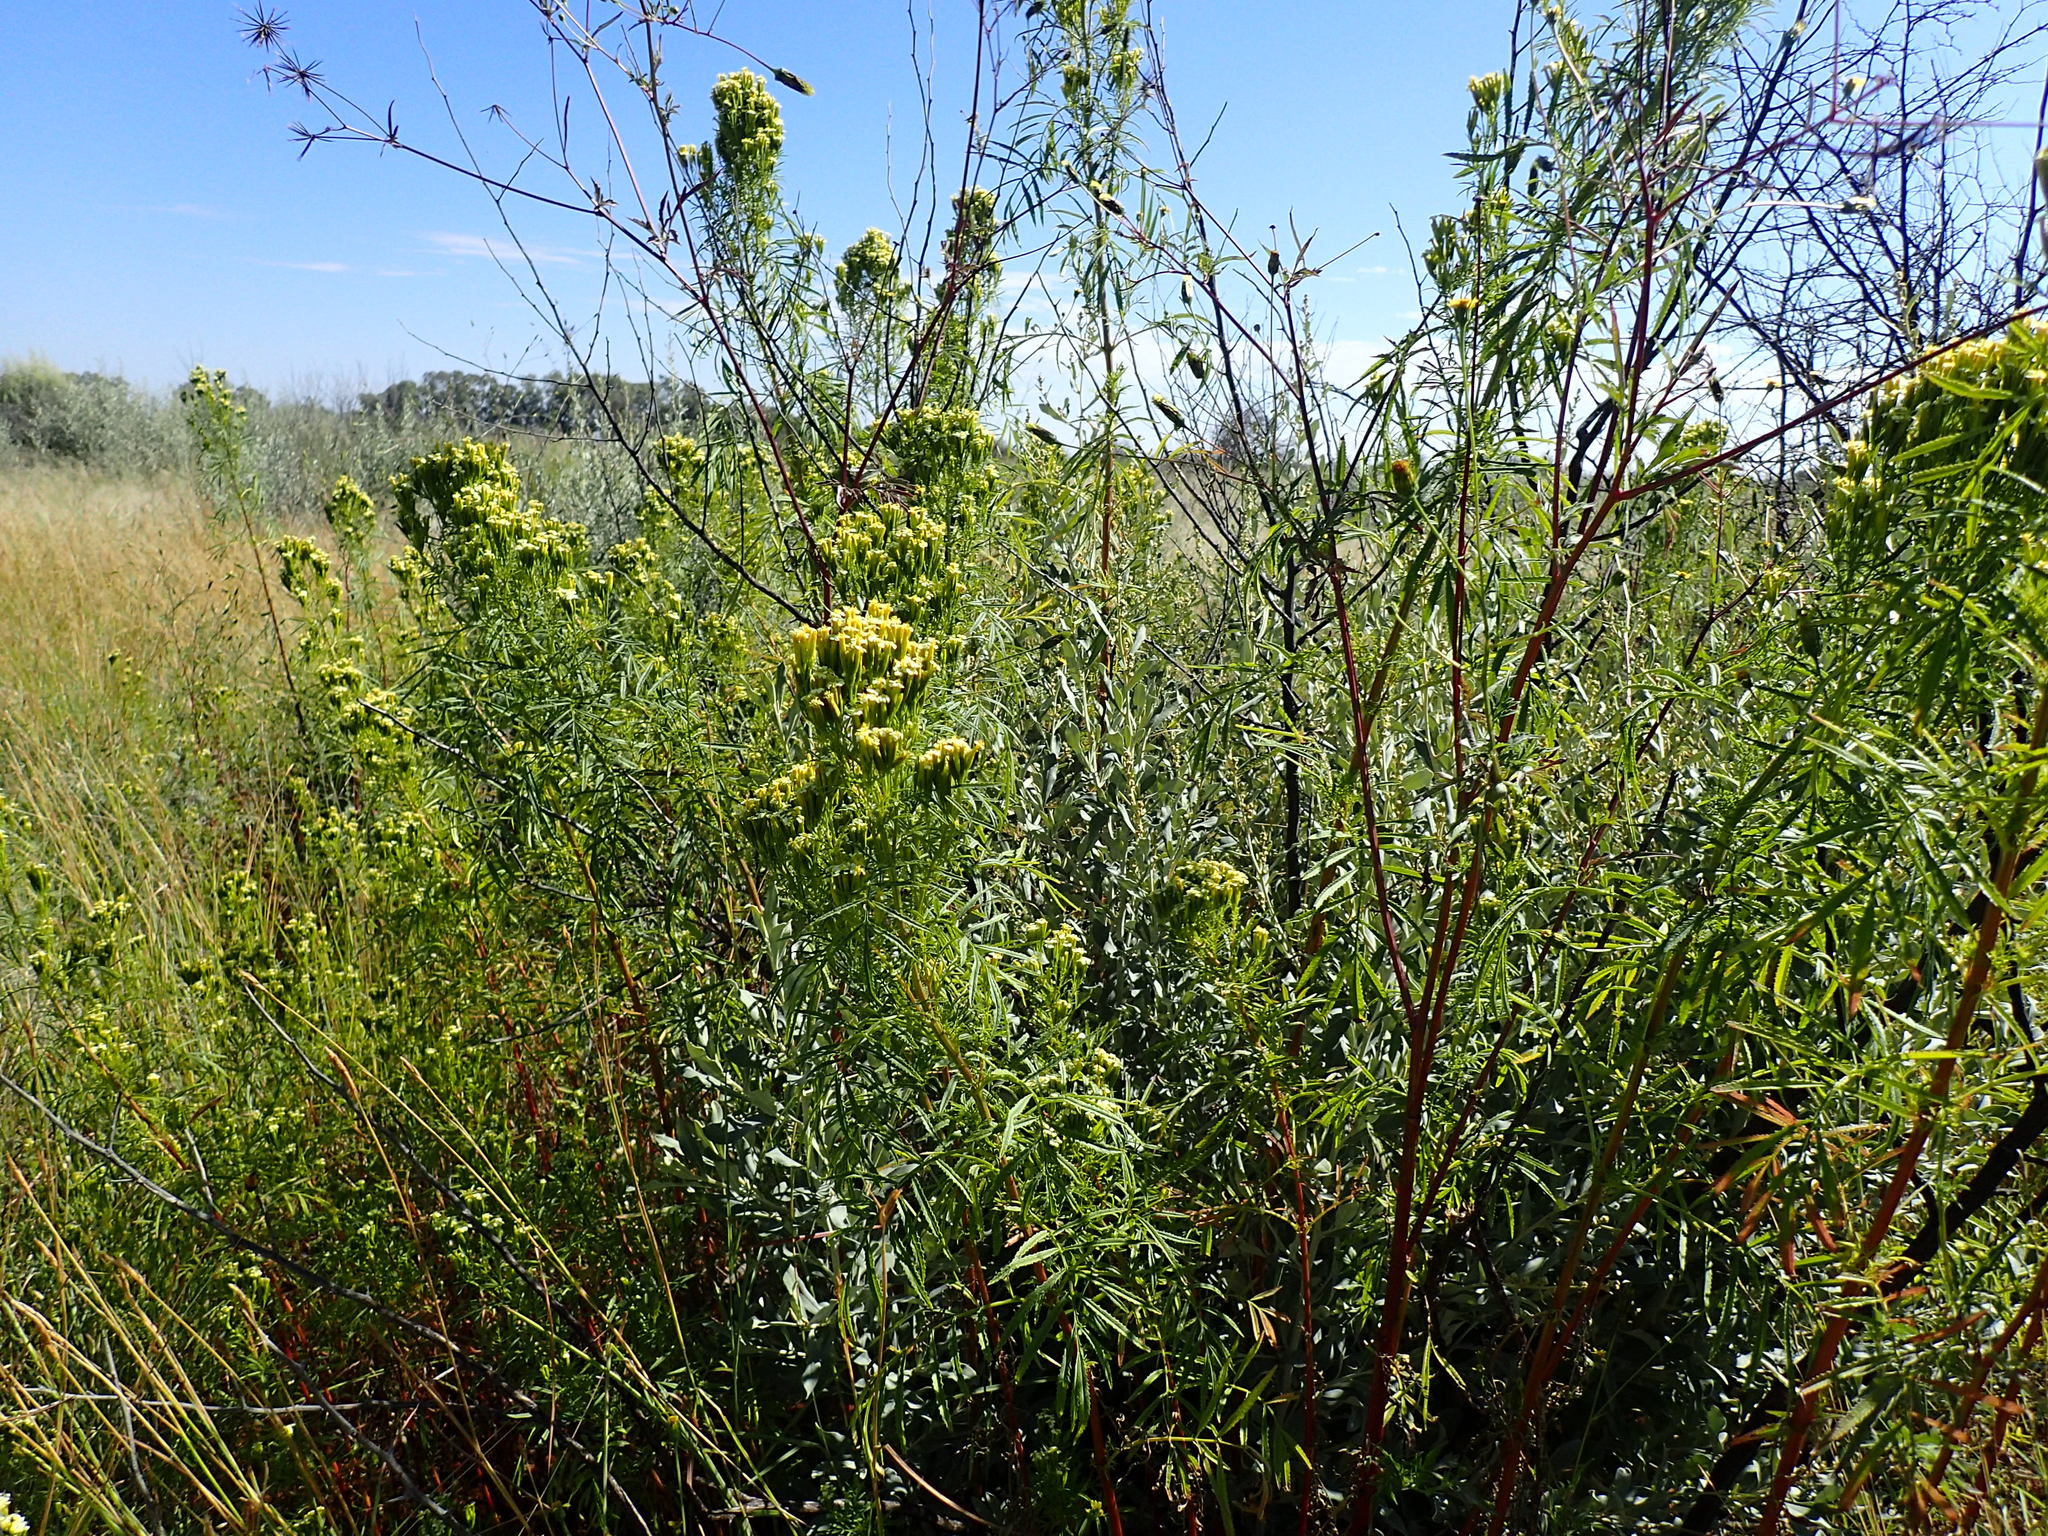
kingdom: Plantae
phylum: Tracheophyta
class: Magnoliopsida
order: Asterales
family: Asteraceae
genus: Tagetes
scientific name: Tagetes minuta
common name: Muster john henry
